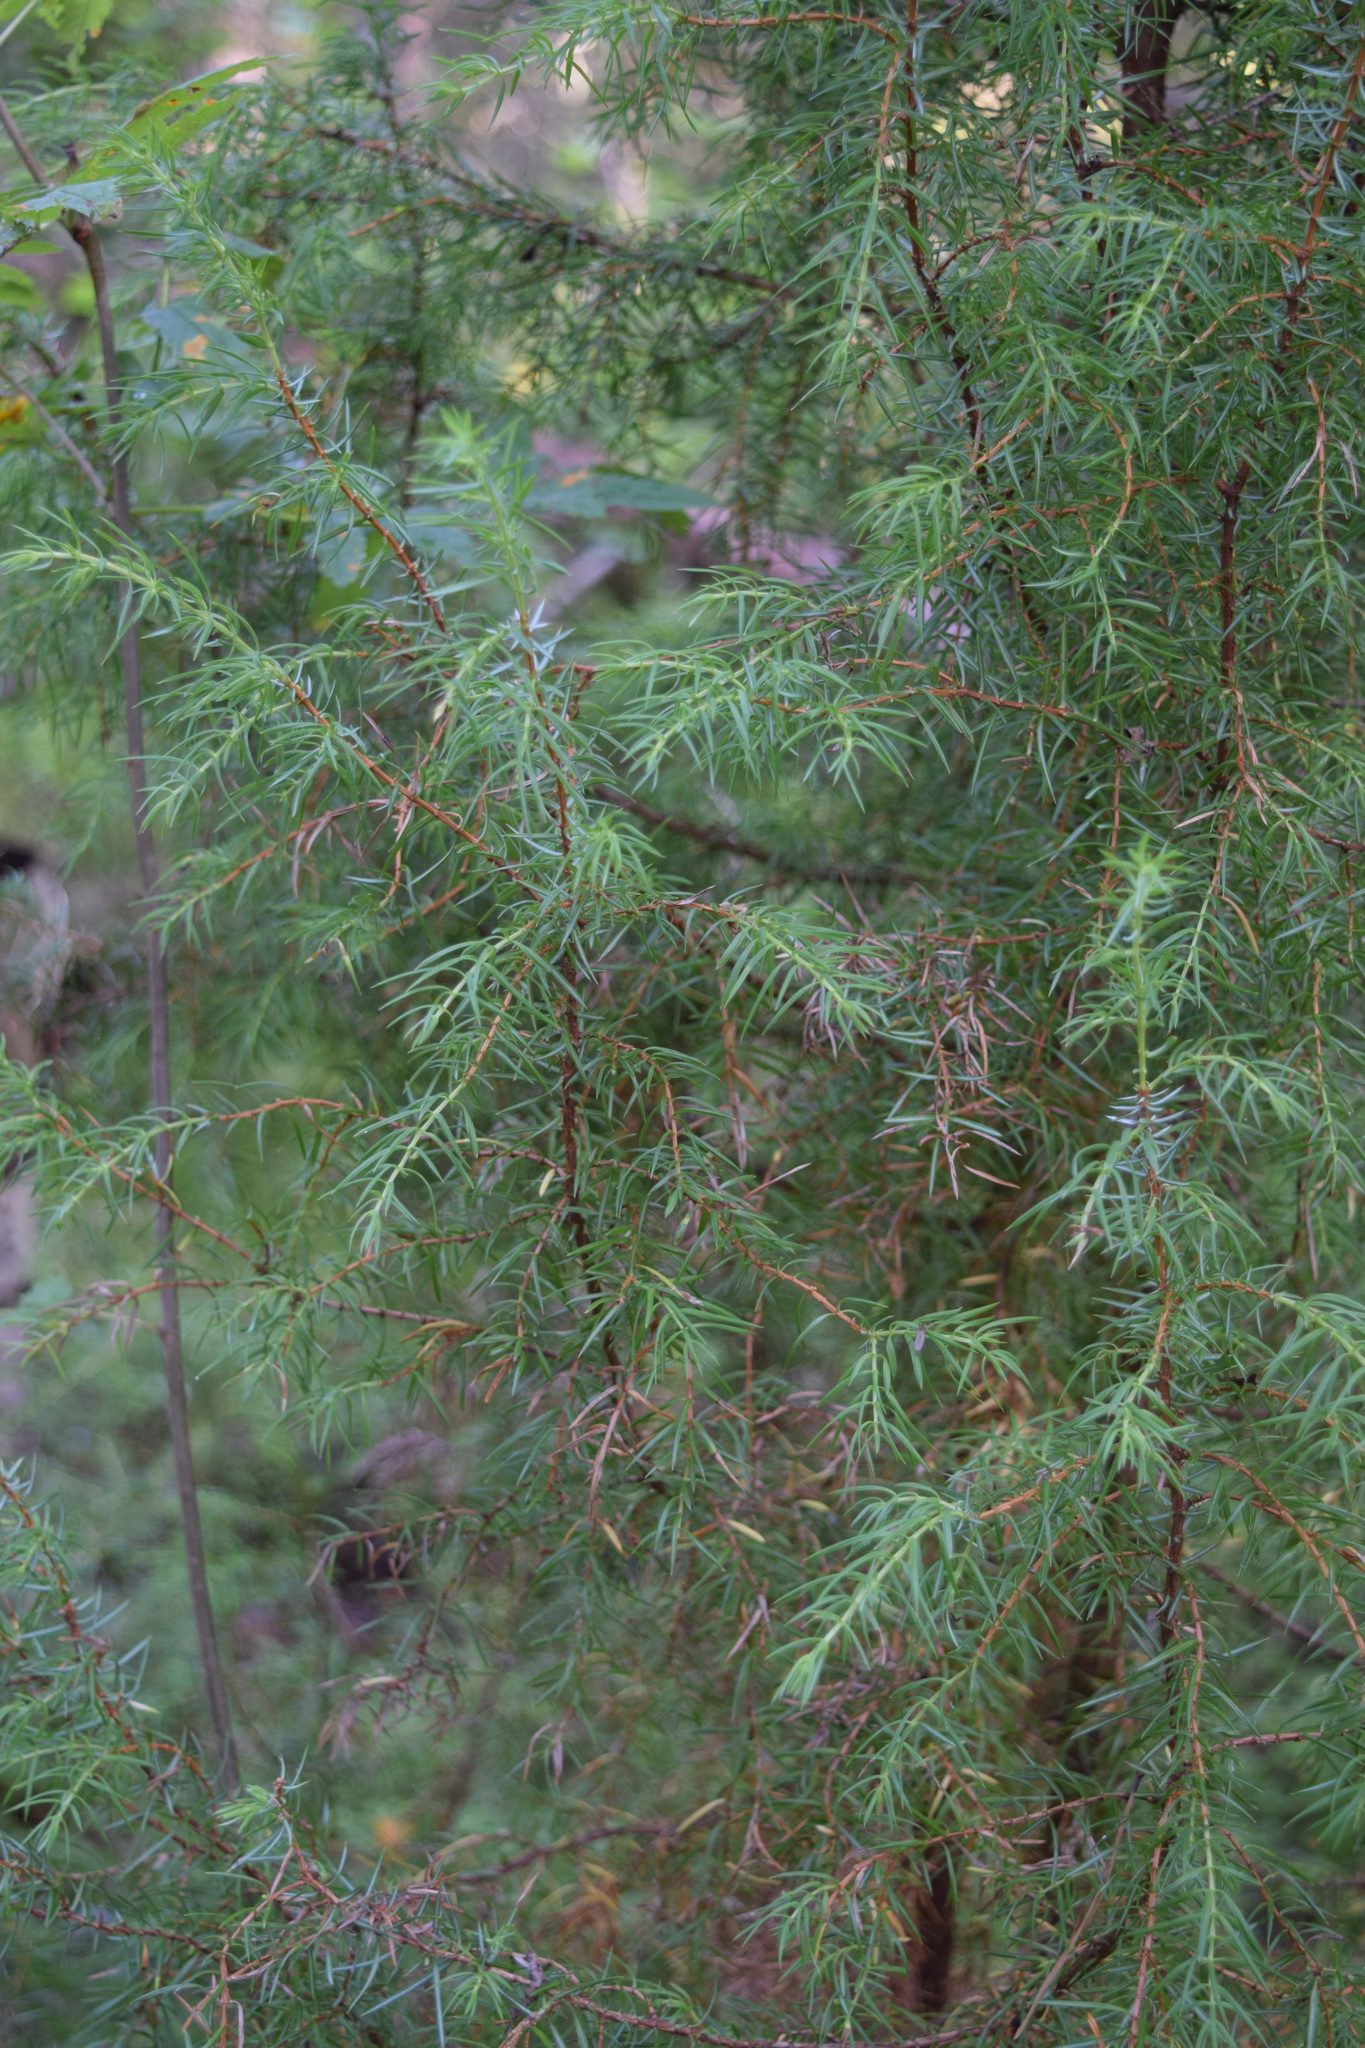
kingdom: Plantae
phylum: Tracheophyta
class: Pinopsida
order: Pinales
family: Cupressaceae
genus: Juniperus
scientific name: Juniperus communis
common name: Common juniper
